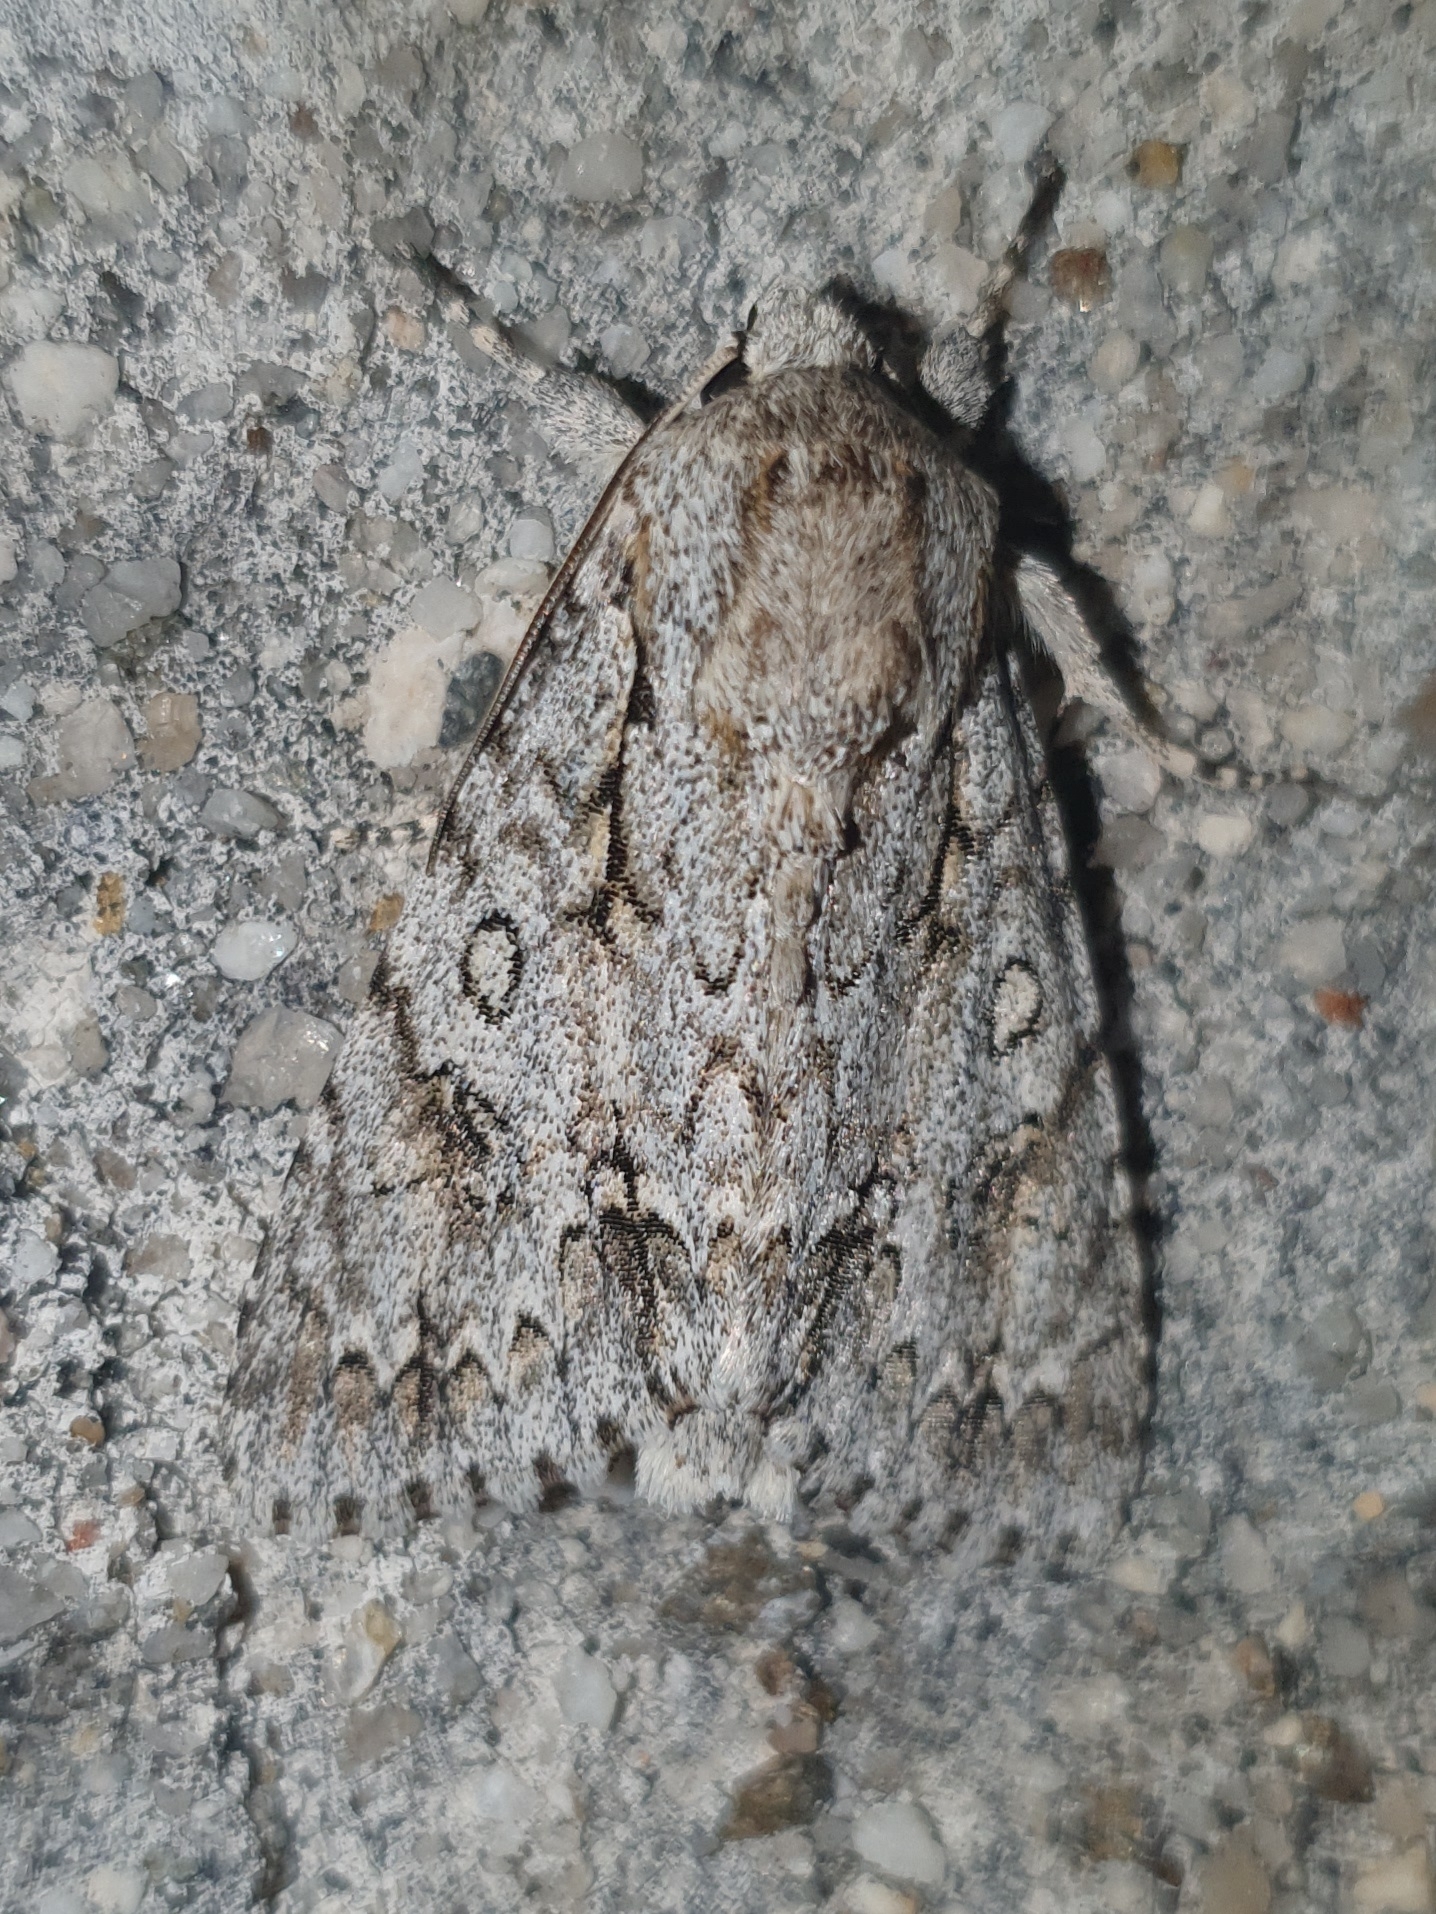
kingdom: Animalia
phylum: Arthropoda
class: Insecta
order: Lepidoptera
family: Noctuidae
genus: Acronicta
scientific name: Acronicta aceris
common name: Sycamore
